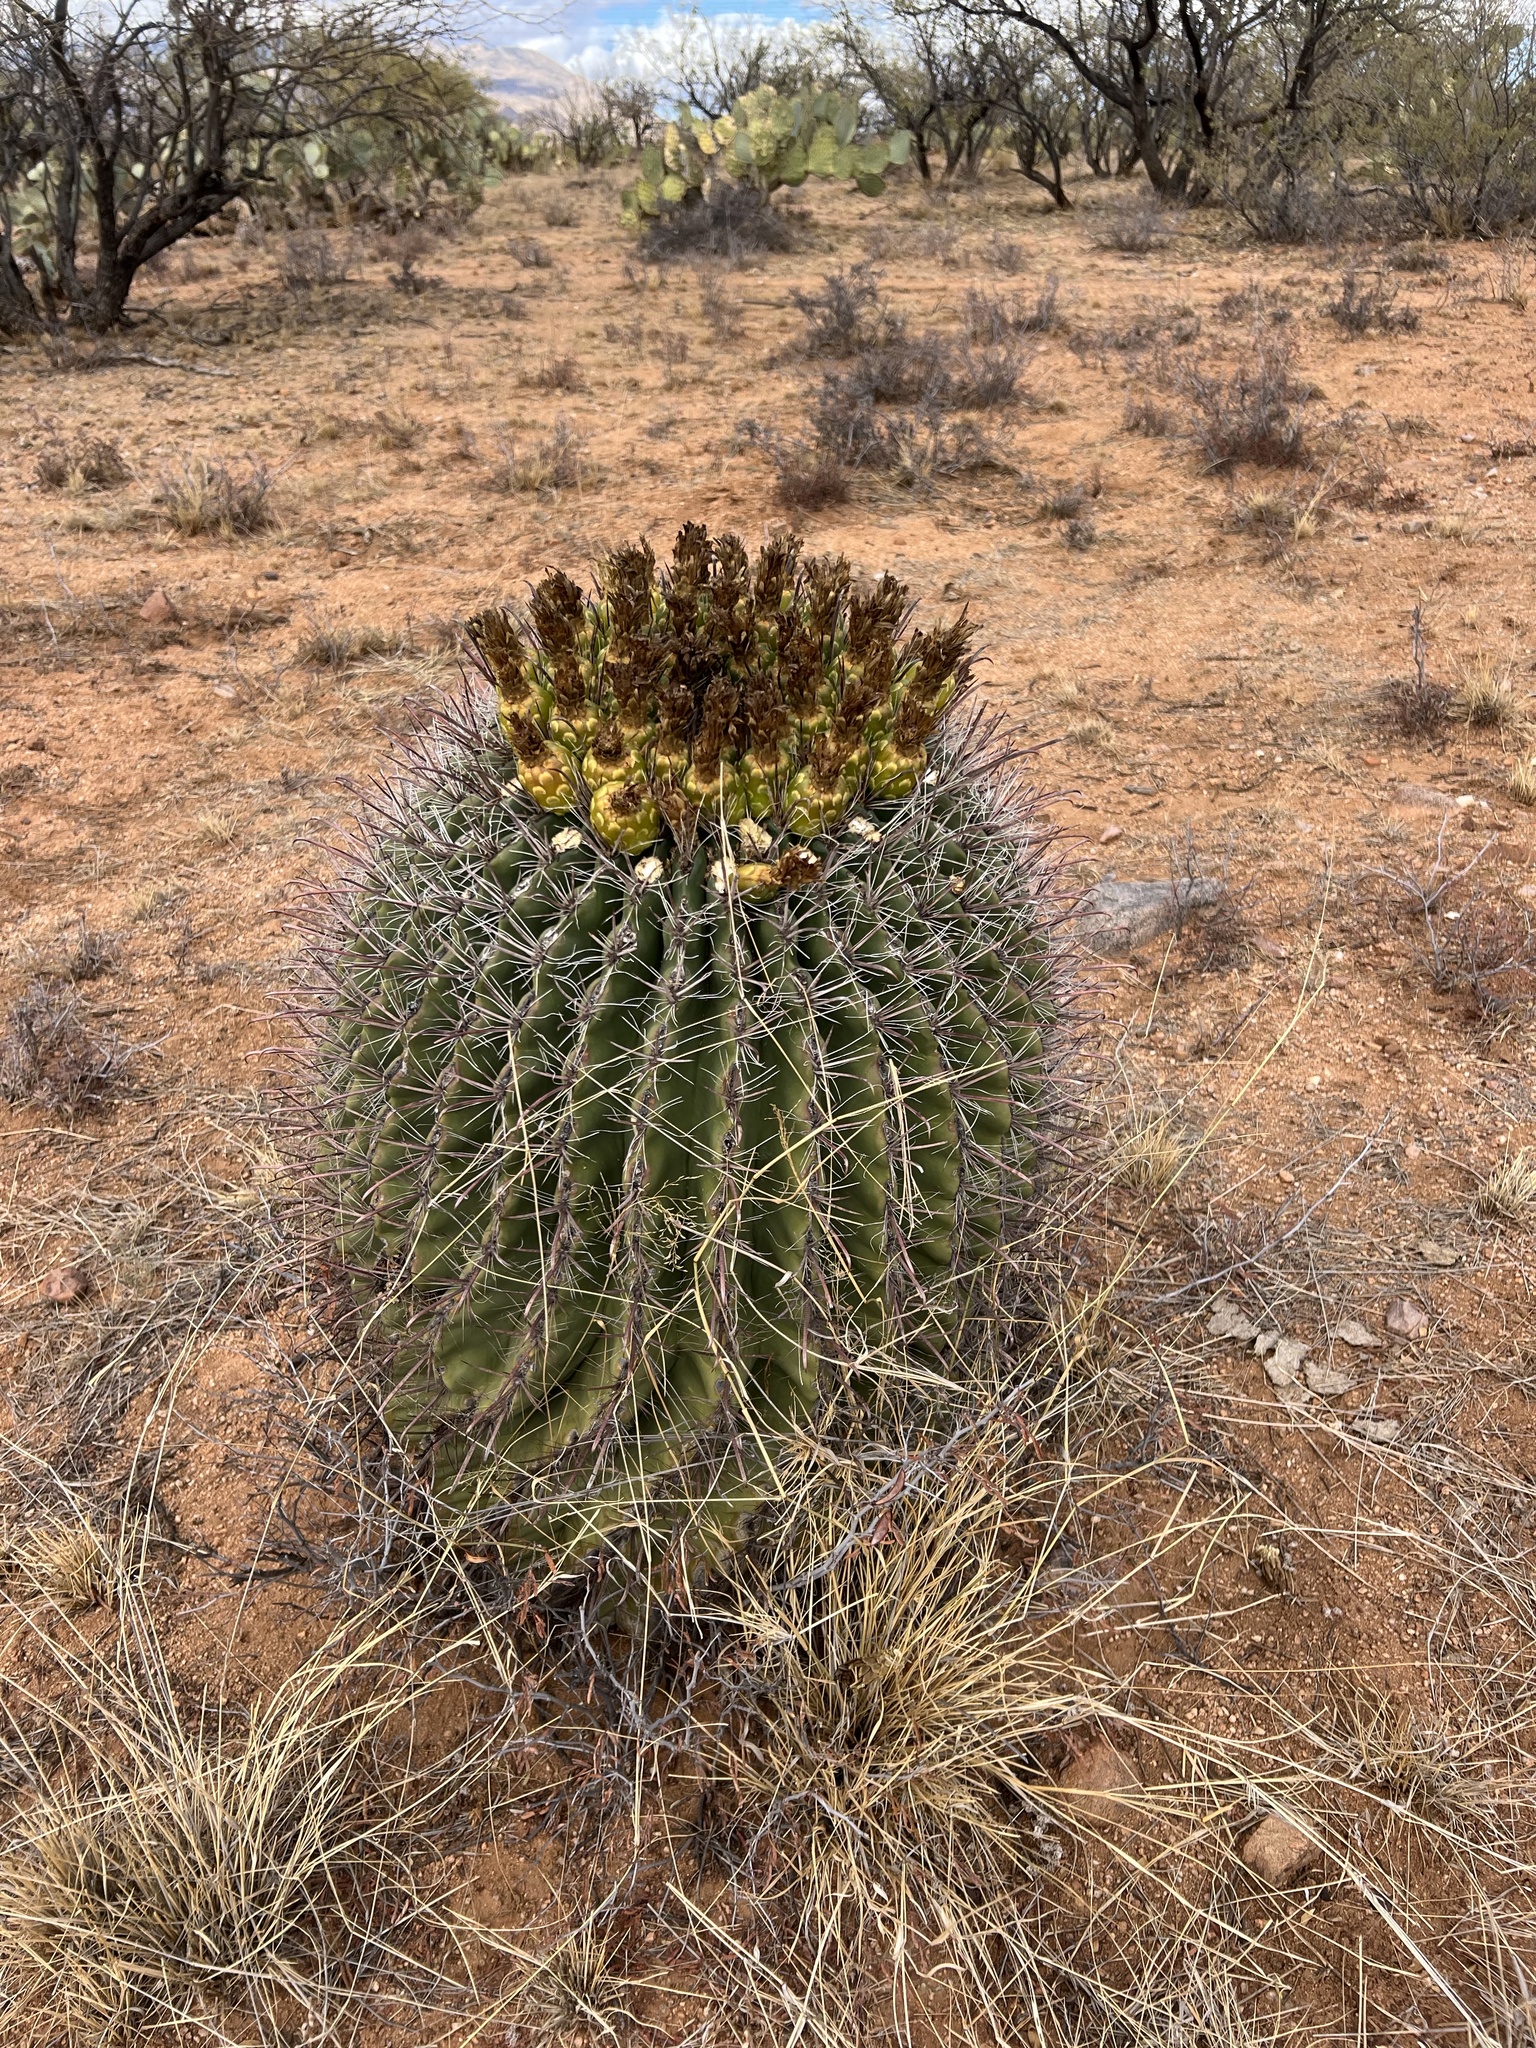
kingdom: Plantae
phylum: Tracheophyta
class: Magnoliopsida
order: Caryophyllales
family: Cactaceae
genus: Ferocactus
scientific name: Ferocactus wislizeni
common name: Candy barrel cactus
